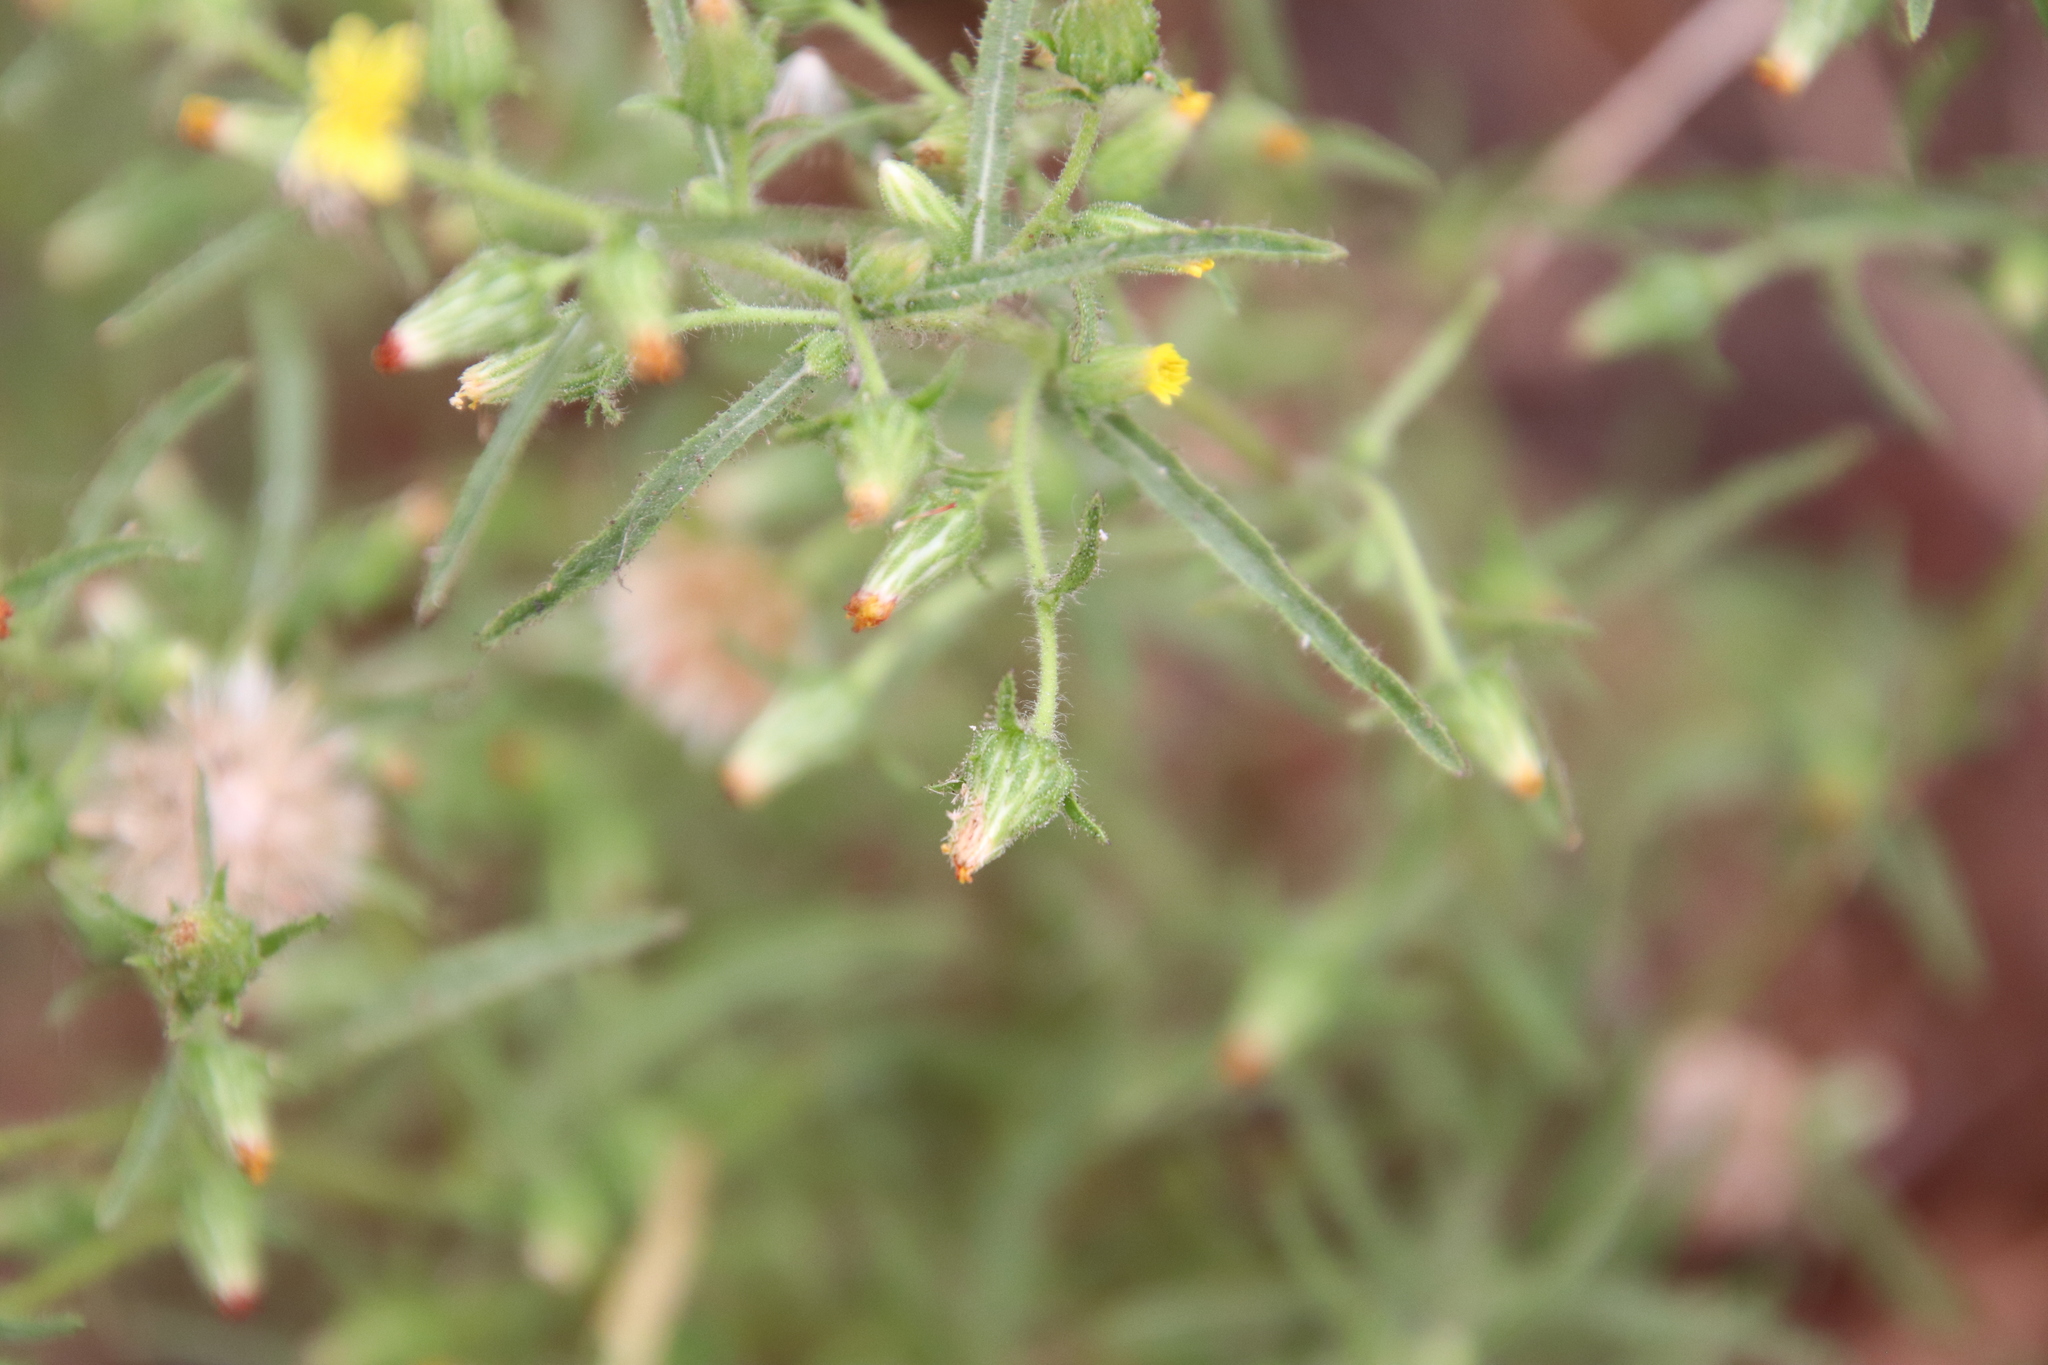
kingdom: Plantae
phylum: Tracheophyta
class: Magnoliopsida
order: Asterales
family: Asteraceae
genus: Dittrichia
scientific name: Dittrichia graveolens
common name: Stinking fleabane
